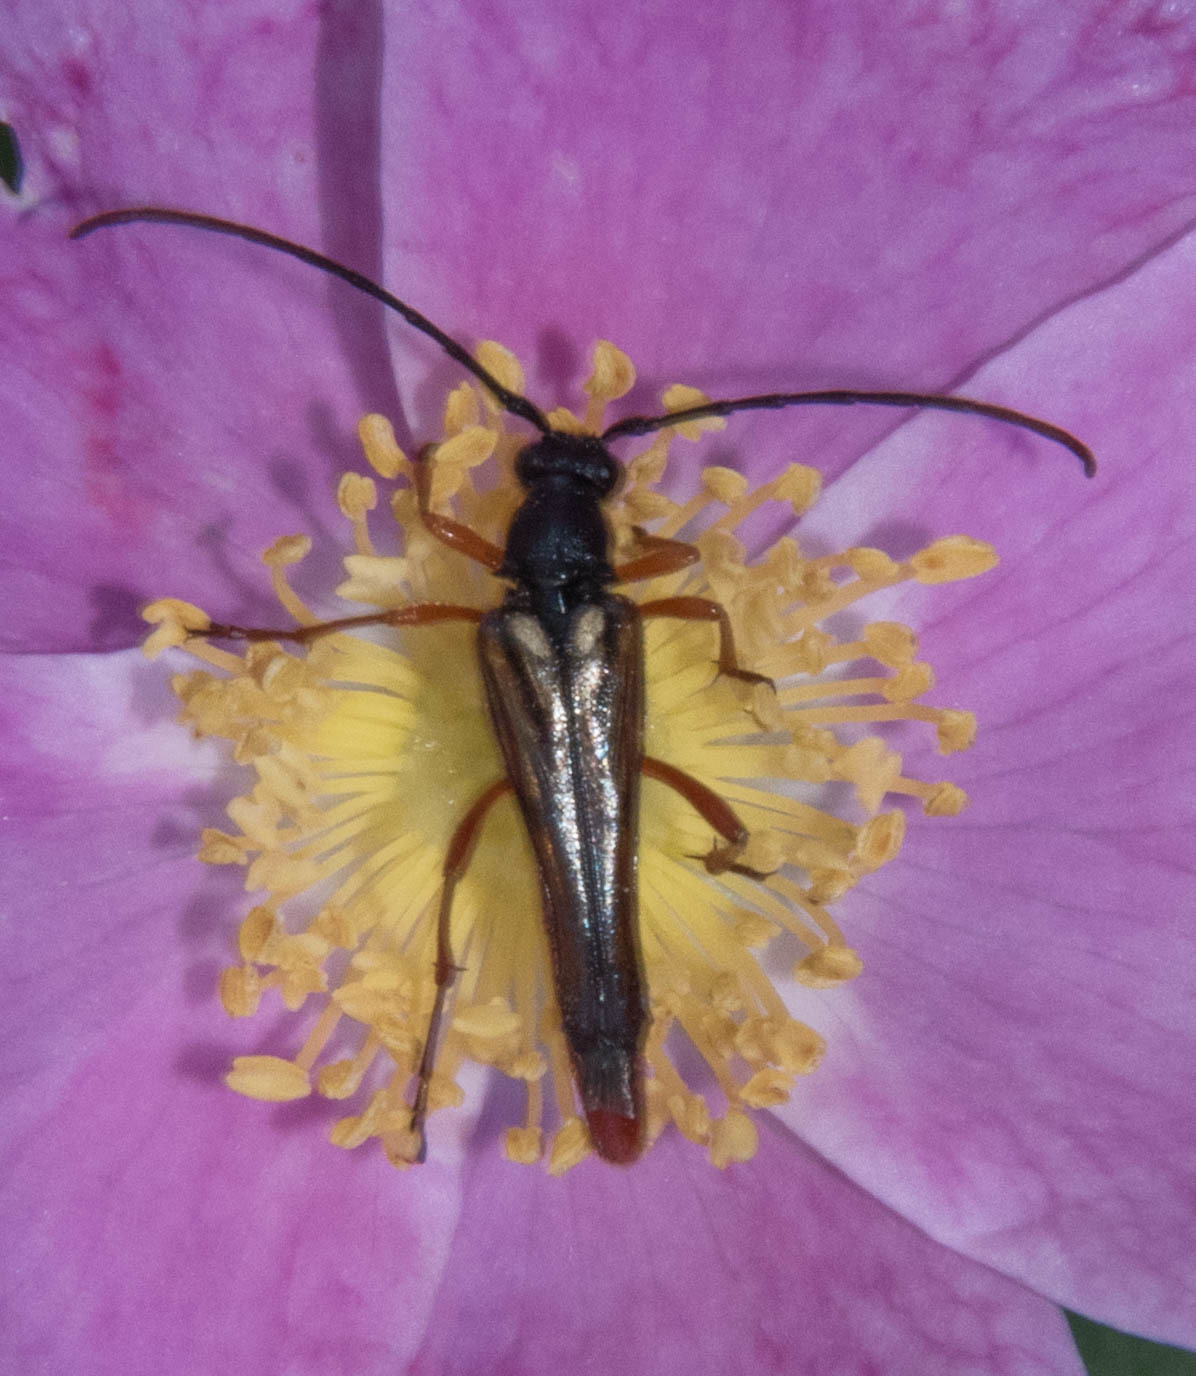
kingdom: Animalia
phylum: Arthropoda
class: Insecta
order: Coleoptera
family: Cerambycidae
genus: Neobellamira
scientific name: Neobellamira delicata
